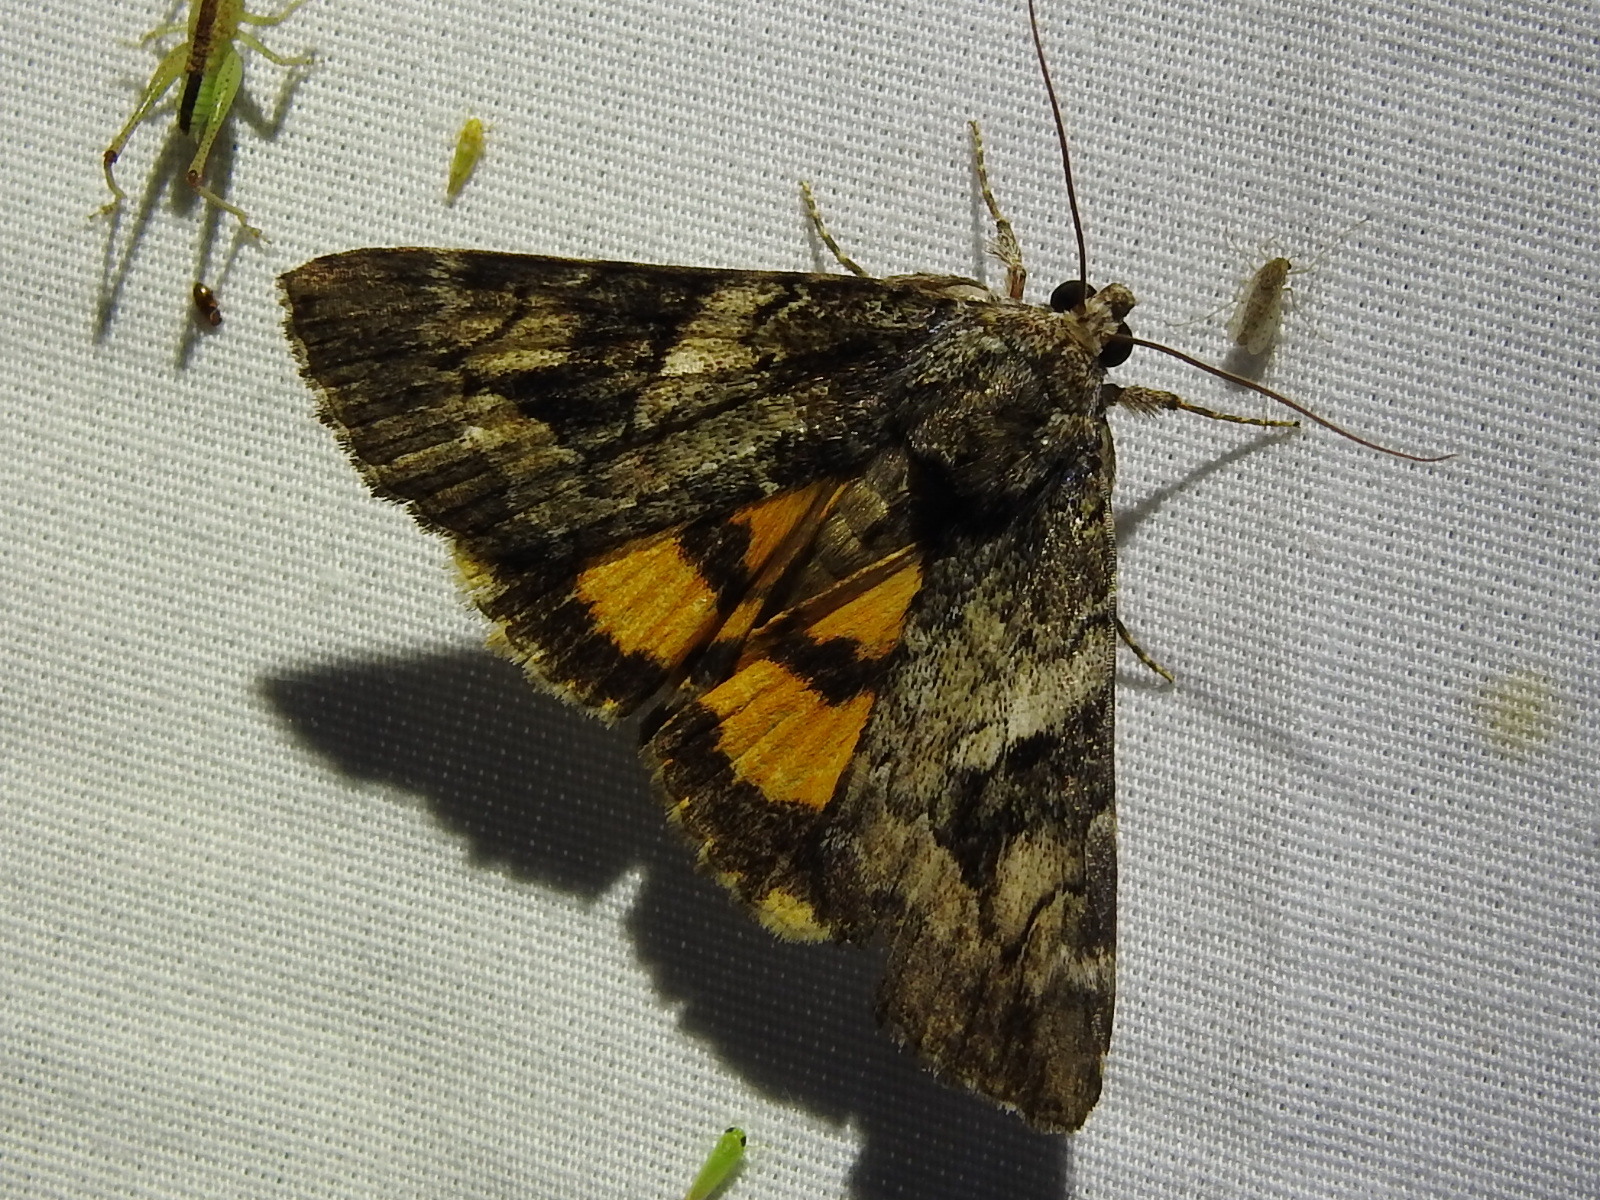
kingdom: Animalia
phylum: Arthropoda
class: Insecta
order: Lepidoptera
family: Erebidae
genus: Catocala
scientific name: Catocala micronympha
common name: Little nymph underwing
